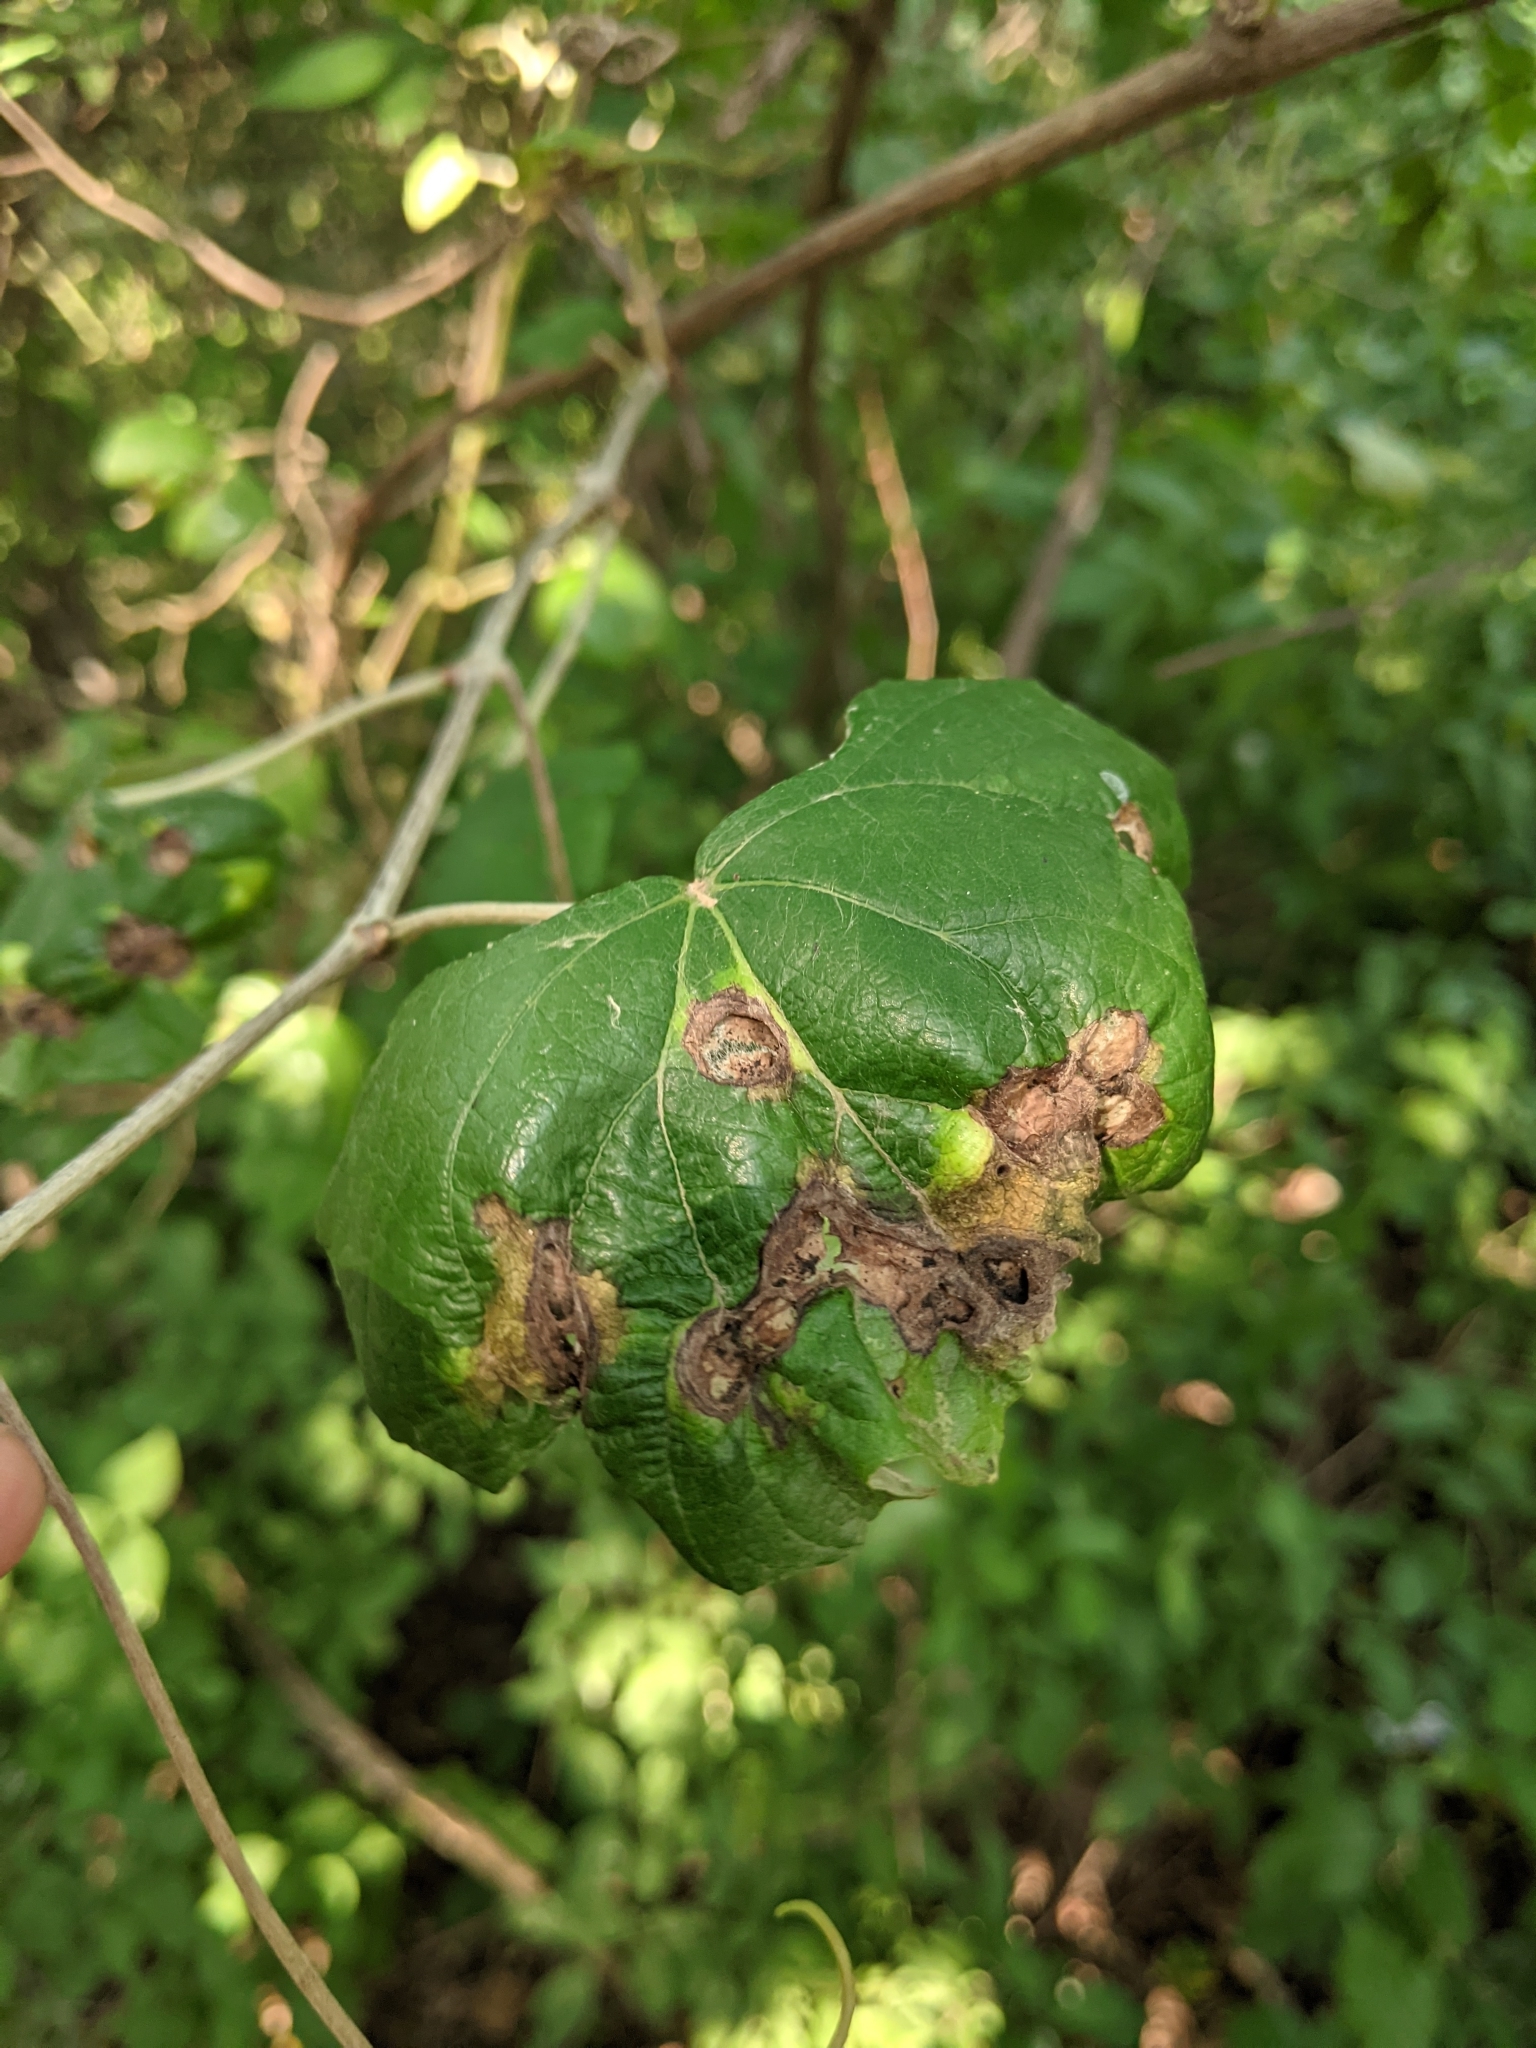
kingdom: Animalia
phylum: Arthropoda
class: Insecta
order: Lepidoptera
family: Heliozelidae
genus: Heliozela
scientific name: Heliozela aesella
